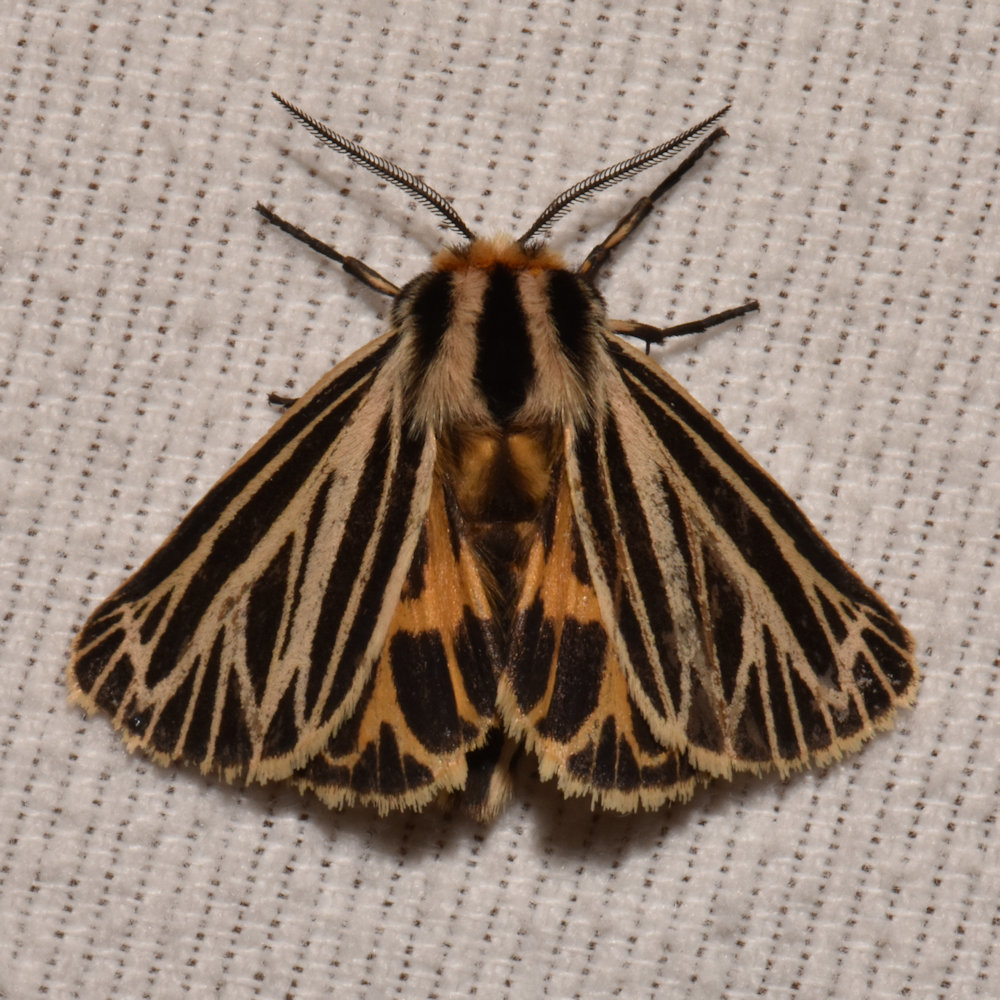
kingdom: Animalia
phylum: Arthropoda
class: Insecta
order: Lepidoptera
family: Erebidae
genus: Grammia
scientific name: Grammia virguncula
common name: Little tiger moth
